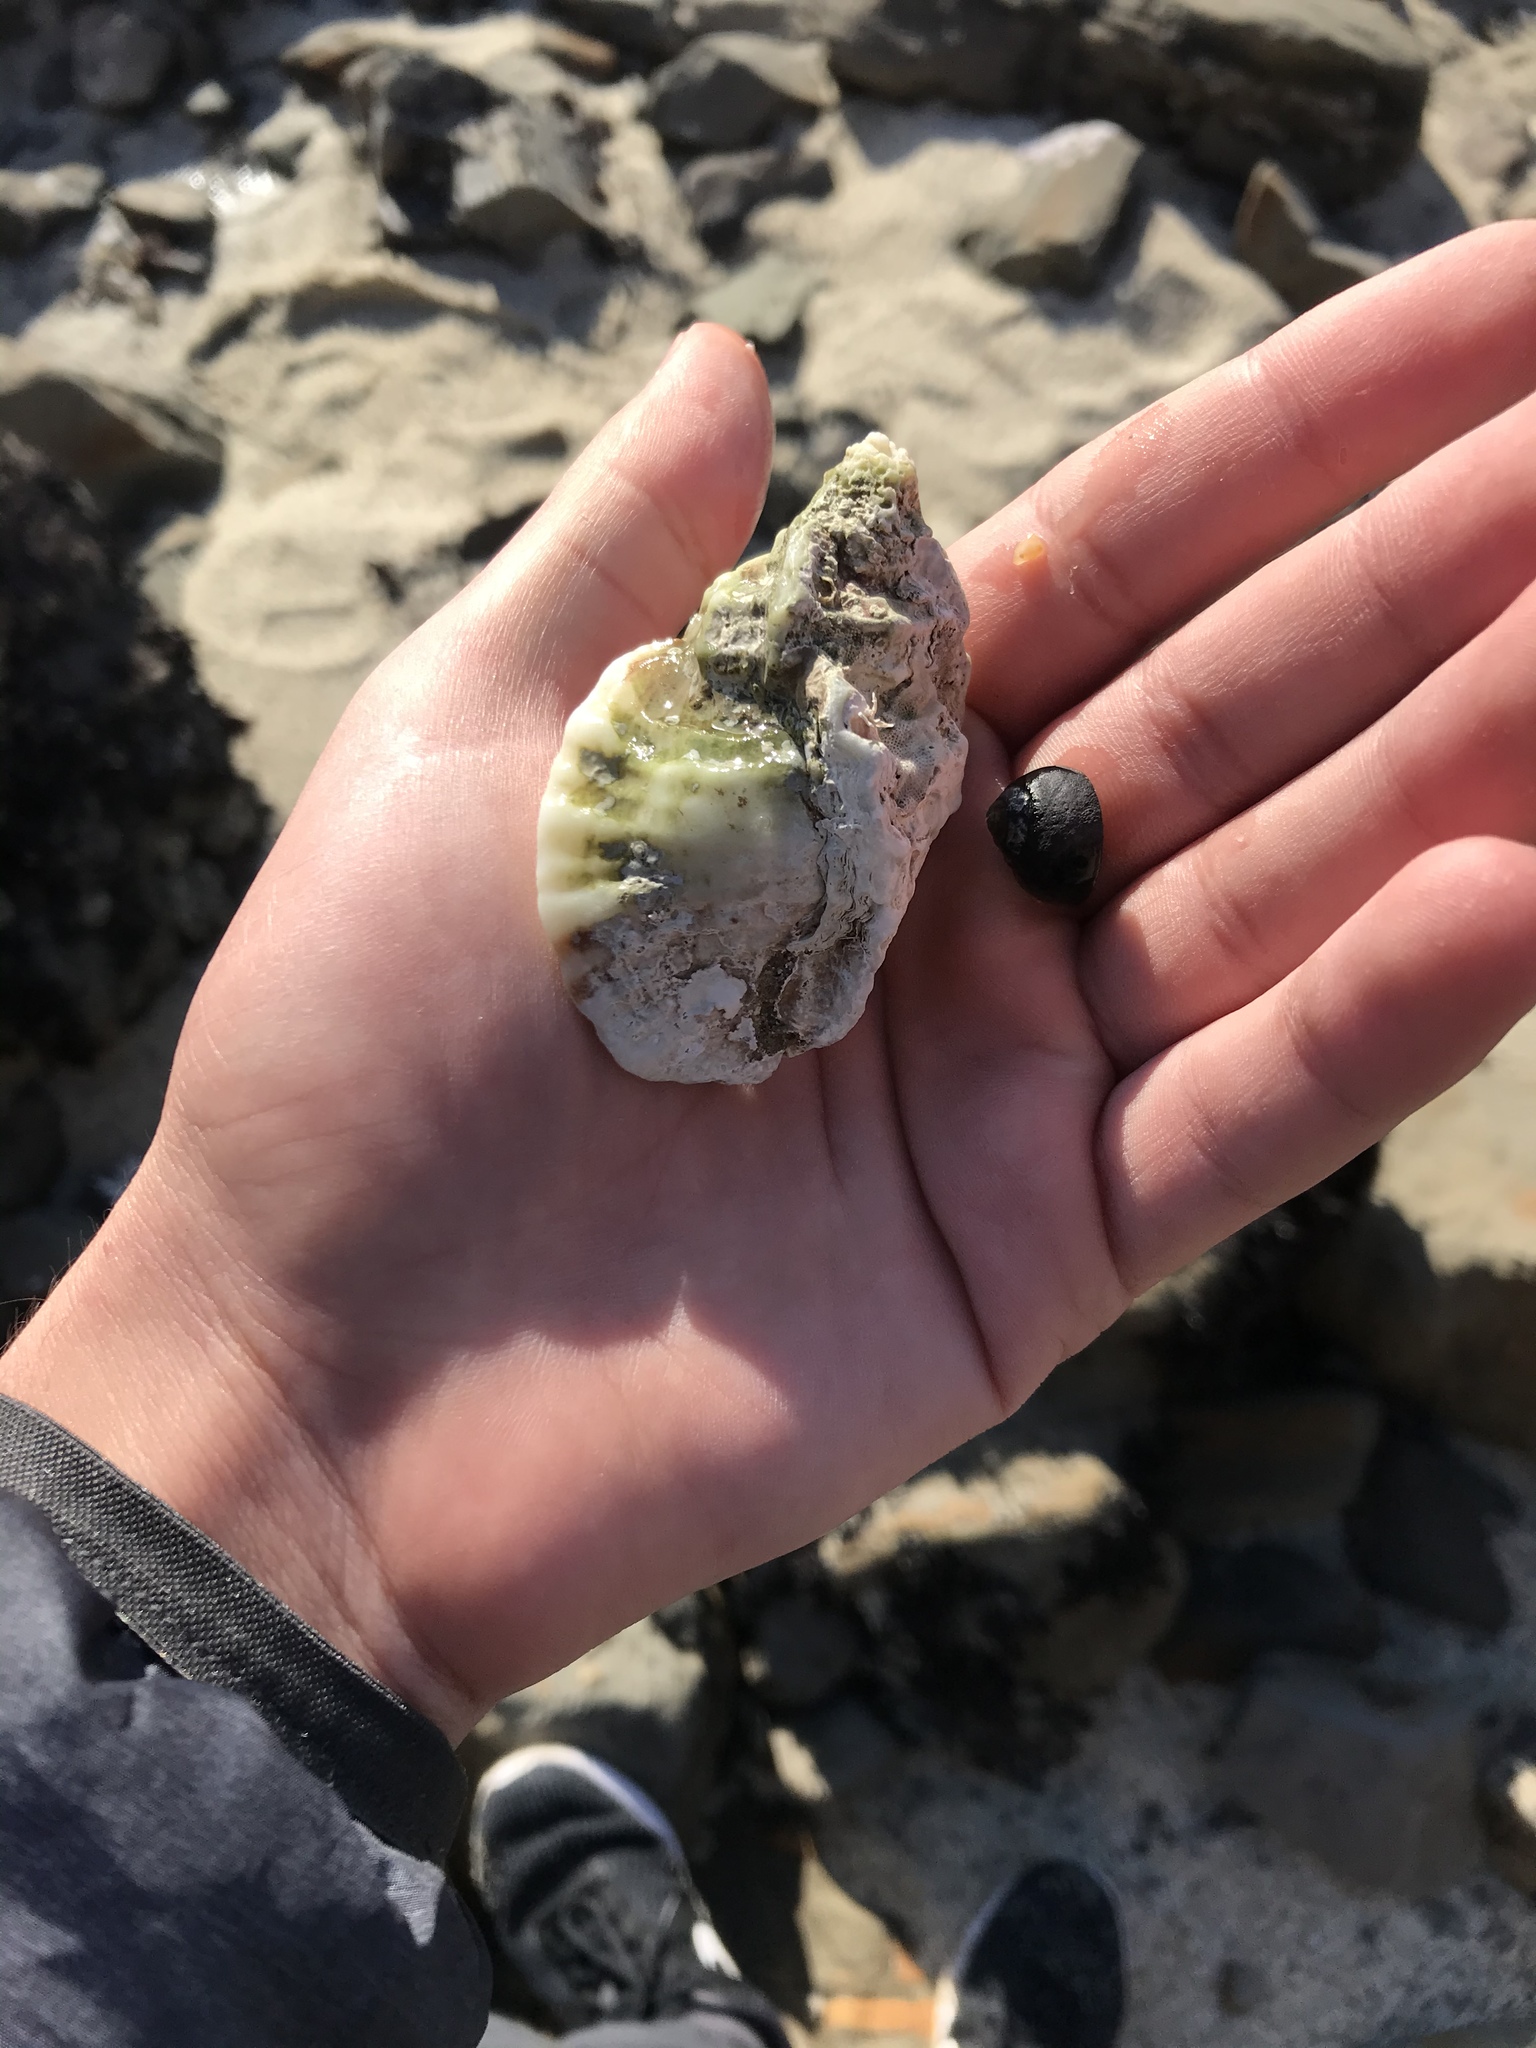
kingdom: Animalia
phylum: Mollusca
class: Gastropoda
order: Neogastropoda
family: Muricidae
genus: Ceratostoma
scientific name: Ceratostoma foliatum
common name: Foliate thorn purpura
